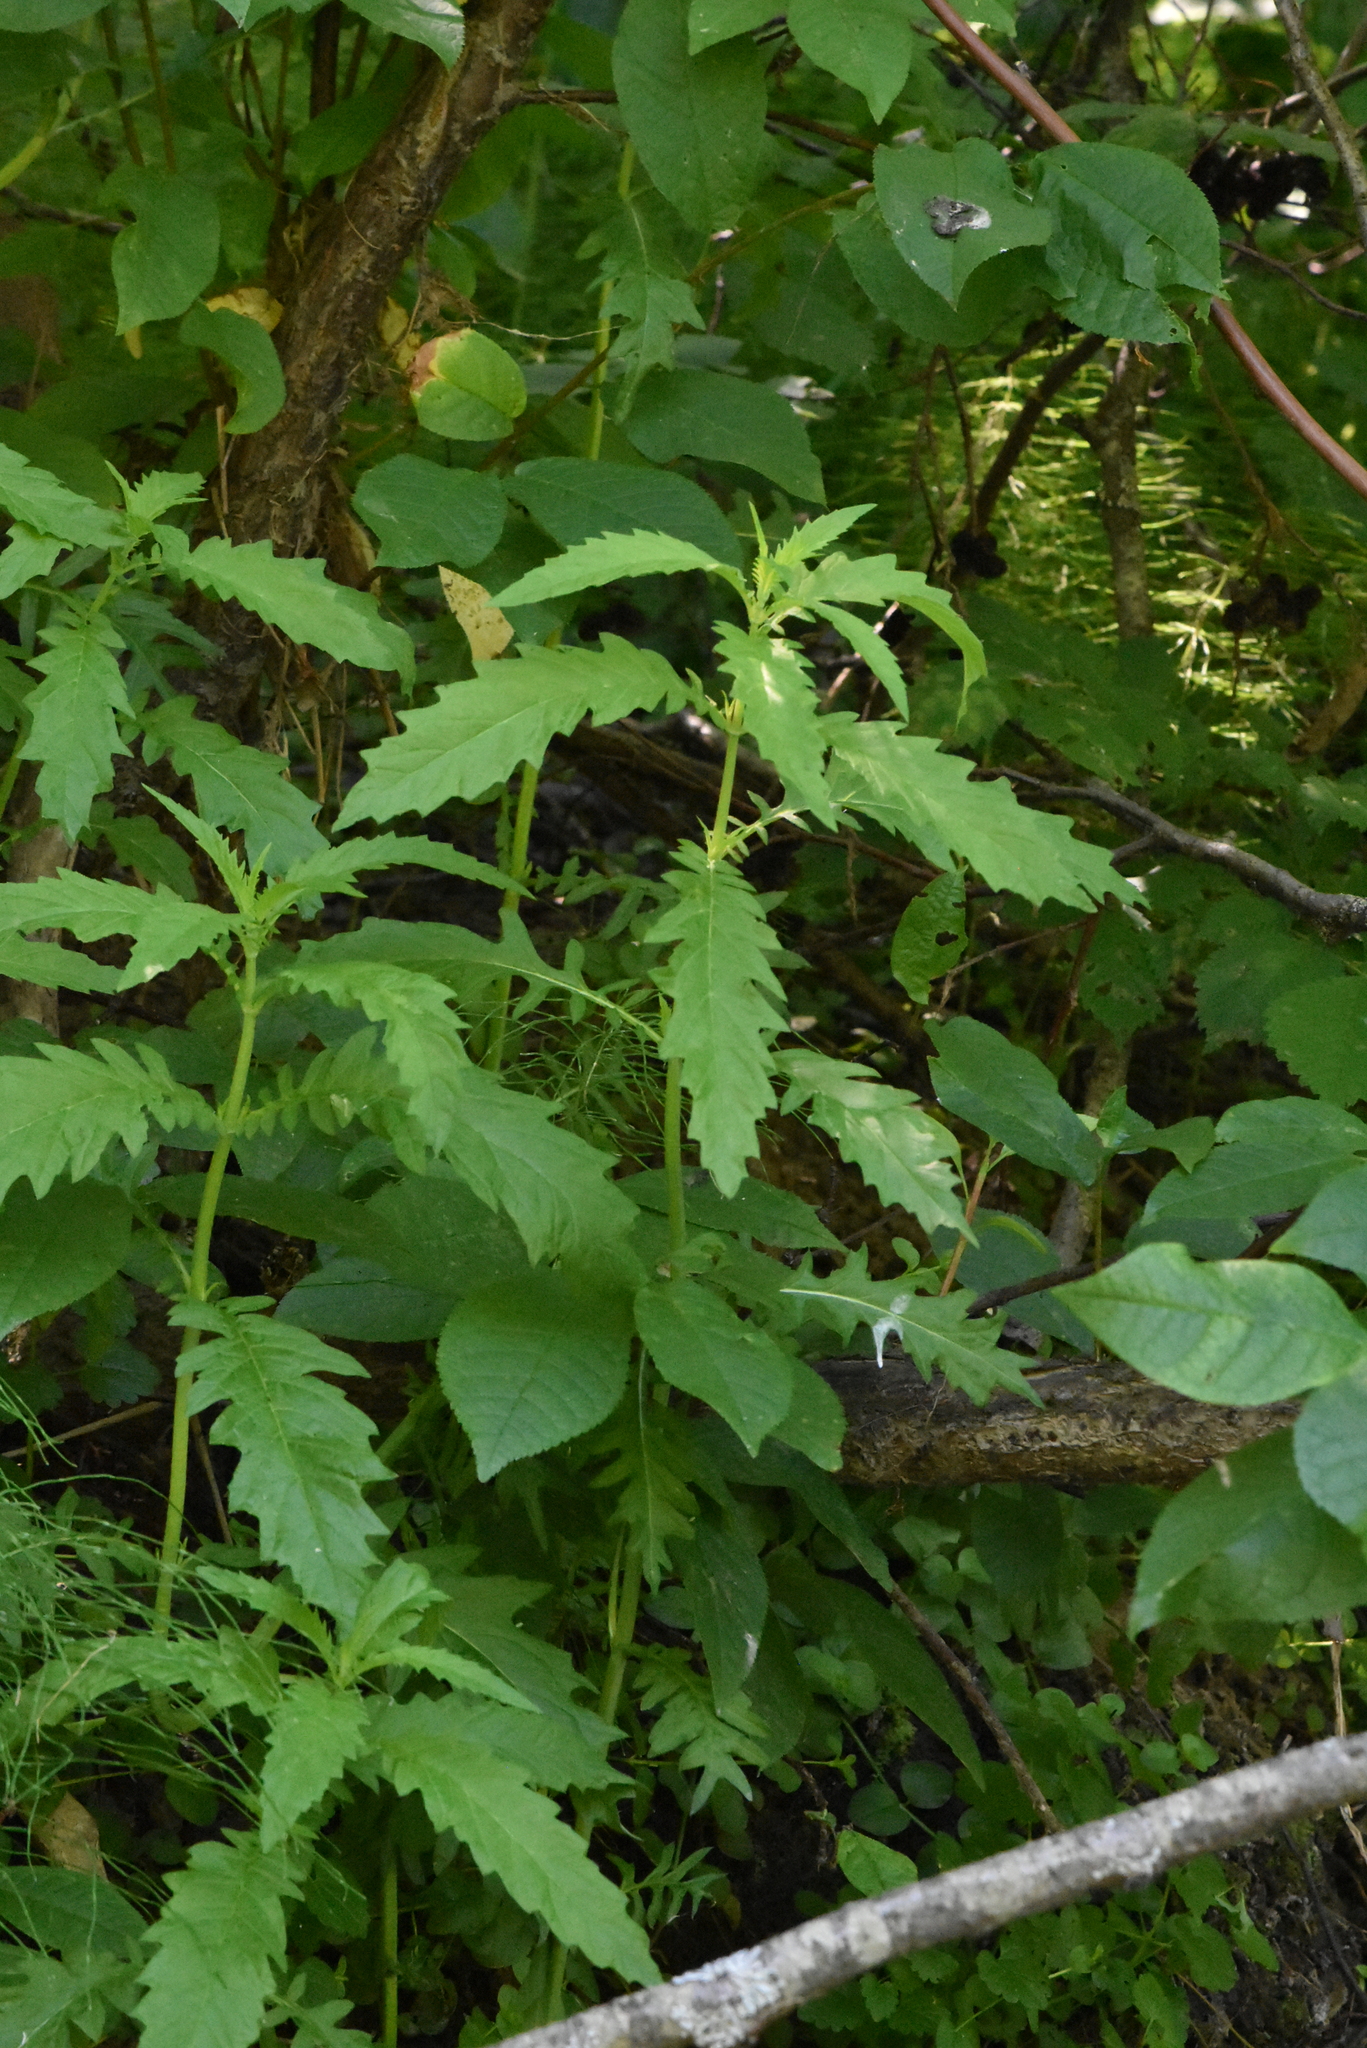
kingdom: Plantae
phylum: Tracheophyta
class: Magnoliopsida
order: Lamiales
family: Lamiaceae
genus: Lycopus
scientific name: Lycopus europaeus
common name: European bugleweed
